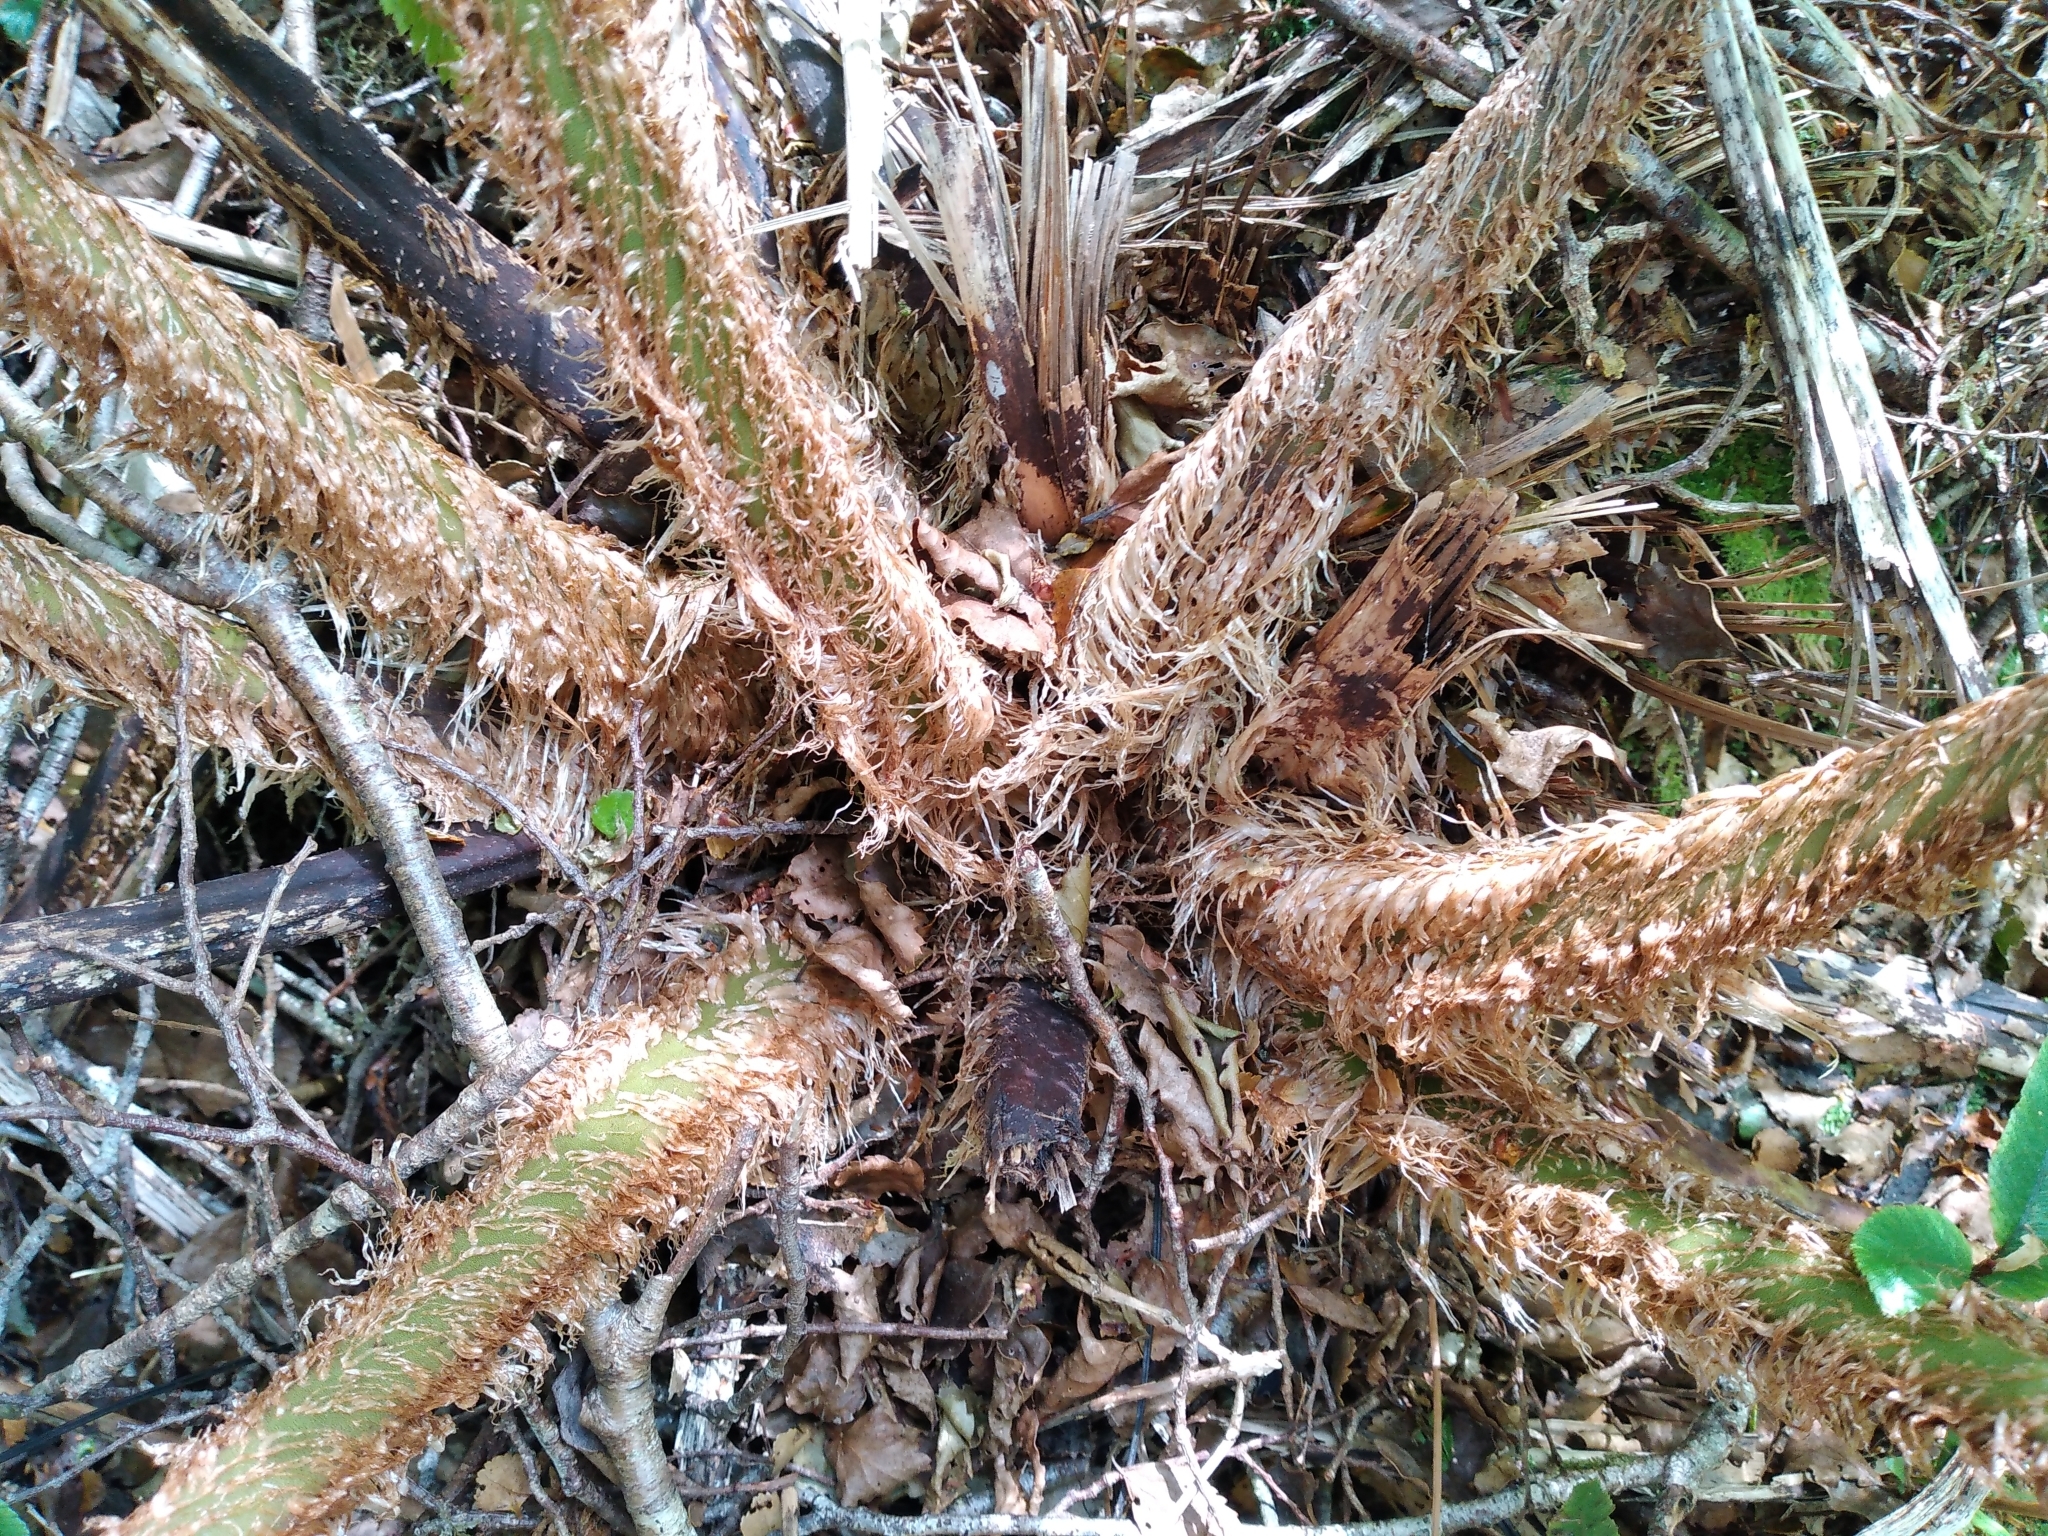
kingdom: Plantae
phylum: Tracheophyta
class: Polypodiopsida
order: Cyatheales
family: Cyatheaceae
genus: Alsophila
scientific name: Alsophila colensoi
